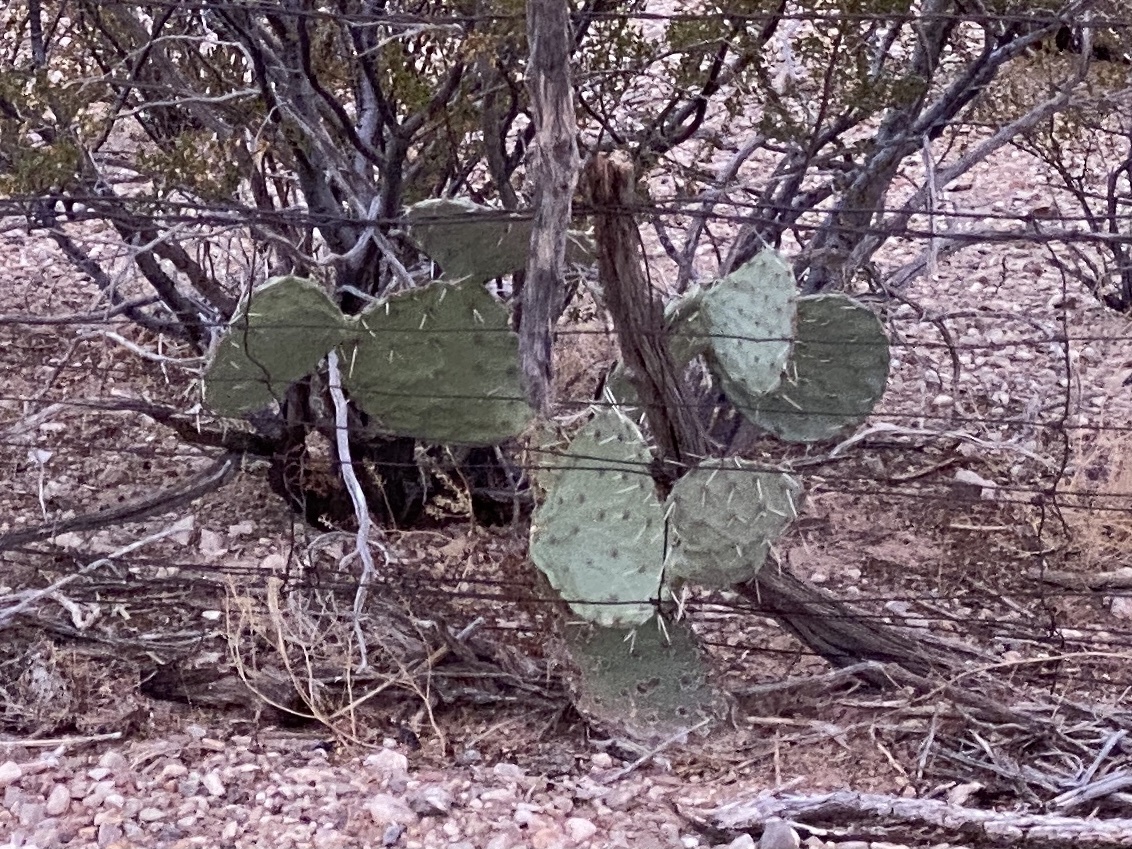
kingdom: Plantae
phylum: Tracheophyta
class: Magnoliopsida
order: Caryophyllales
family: Cactaceae
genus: Opuntia
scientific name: Opuntia engelmannii
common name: Cactus-apple
